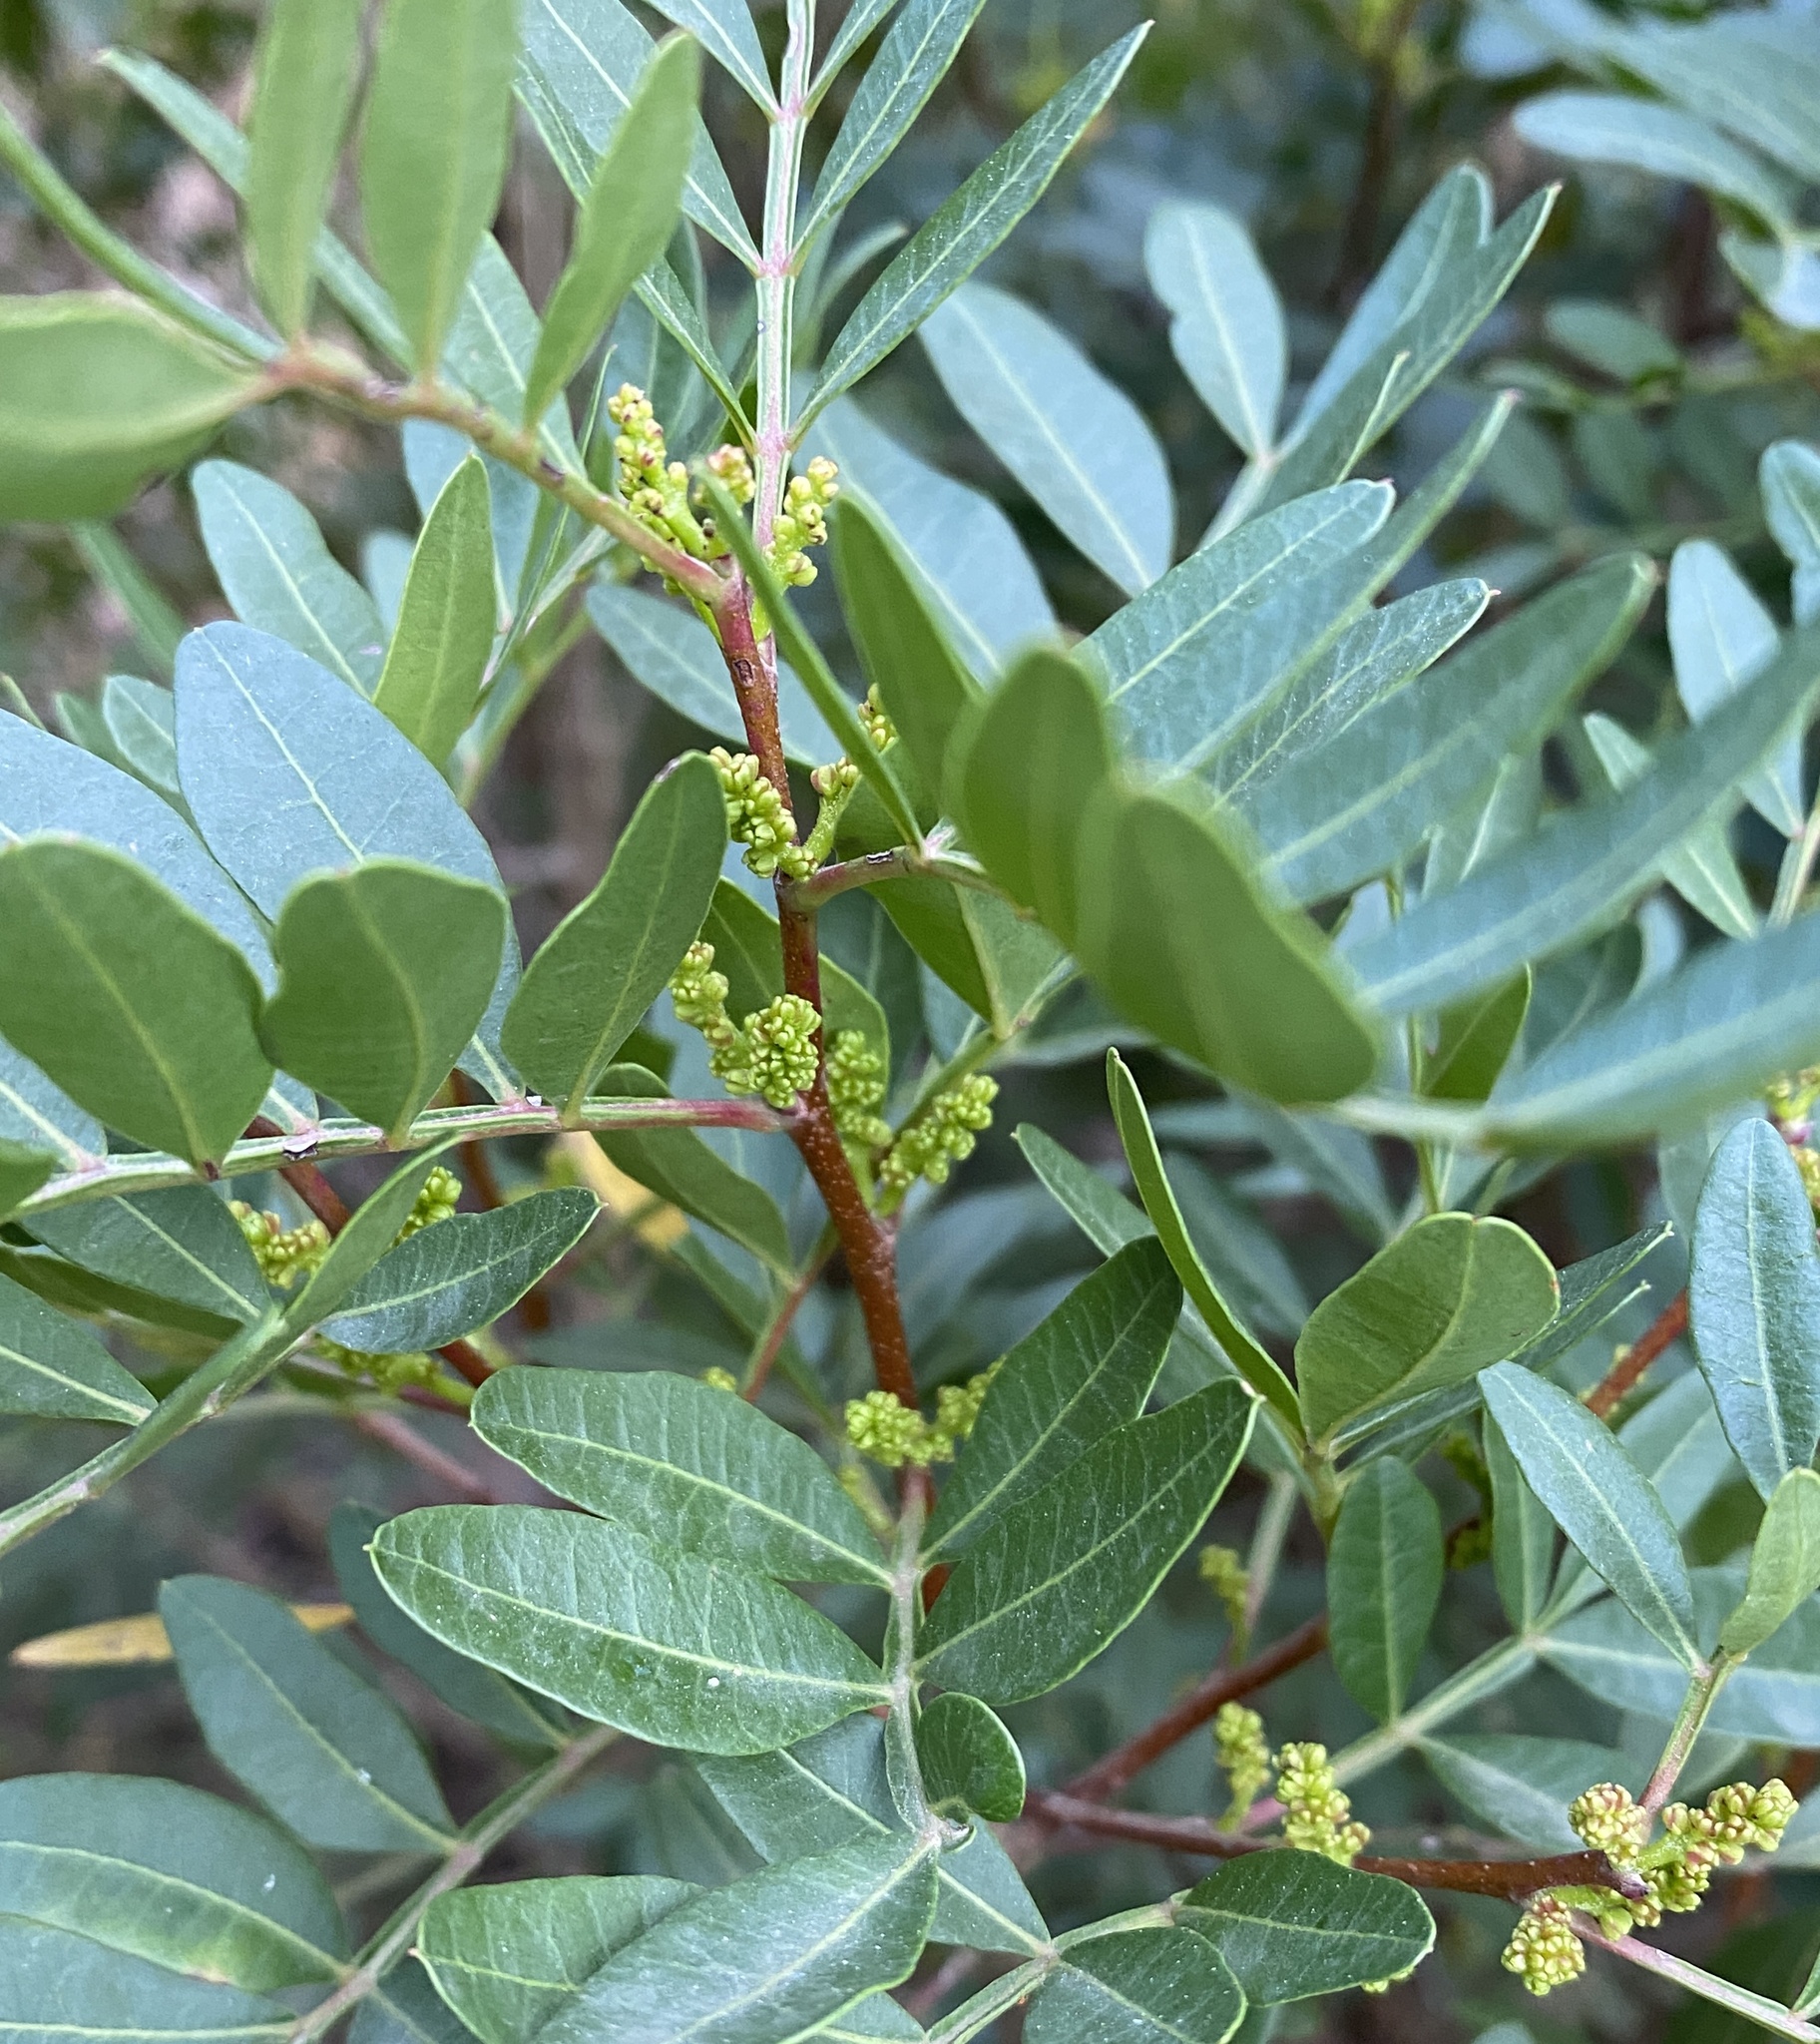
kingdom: Plantae
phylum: Tracheophyta
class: Magnoliopsida
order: Sapindales
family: Anacardiaceae
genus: Pistacia
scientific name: Pistacia lentiscus
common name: Lentisk
